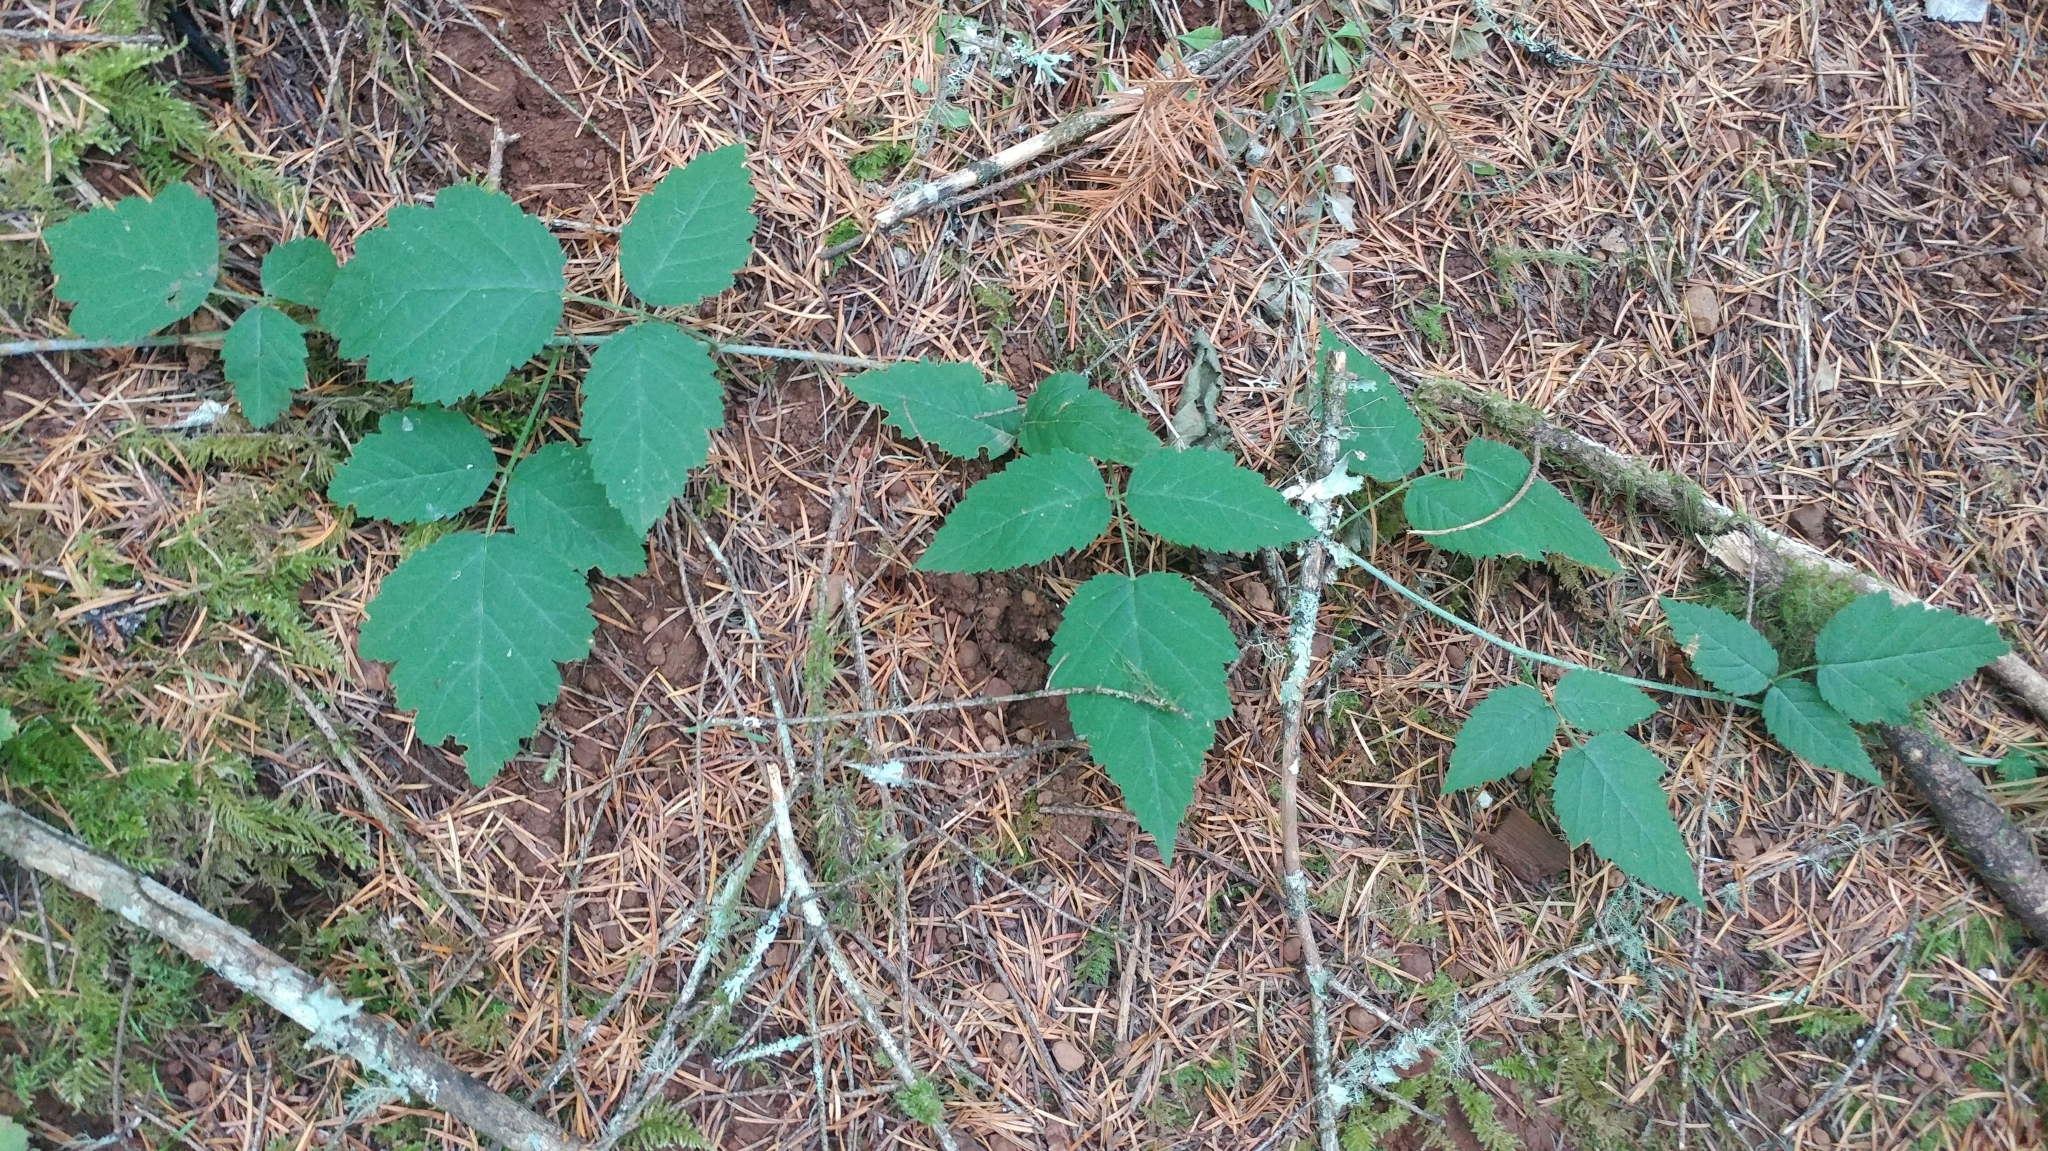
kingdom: Plantae
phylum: Tracheophyta
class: Magnoliopsida
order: Rosales
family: Rosaceae
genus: Rubus
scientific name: Rubus ursinus
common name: Pacific blackberry
